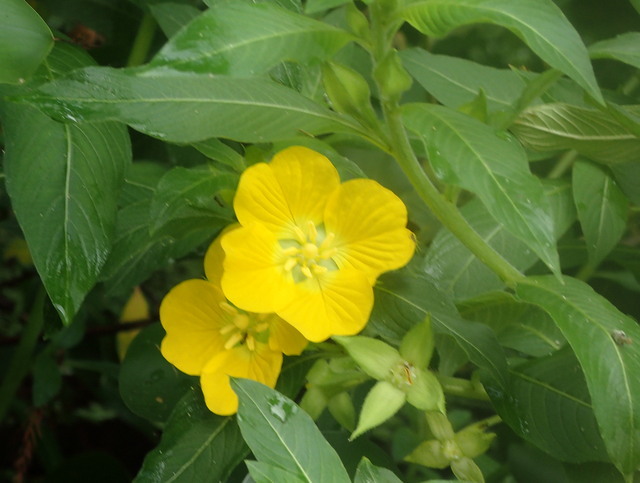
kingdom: Plantae
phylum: Tracheophyta
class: Magnoliopsida
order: Myrtales
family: Onagraceae
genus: Ludwigia
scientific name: Ludwigia peruviana
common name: Peruvian primrose-willow
